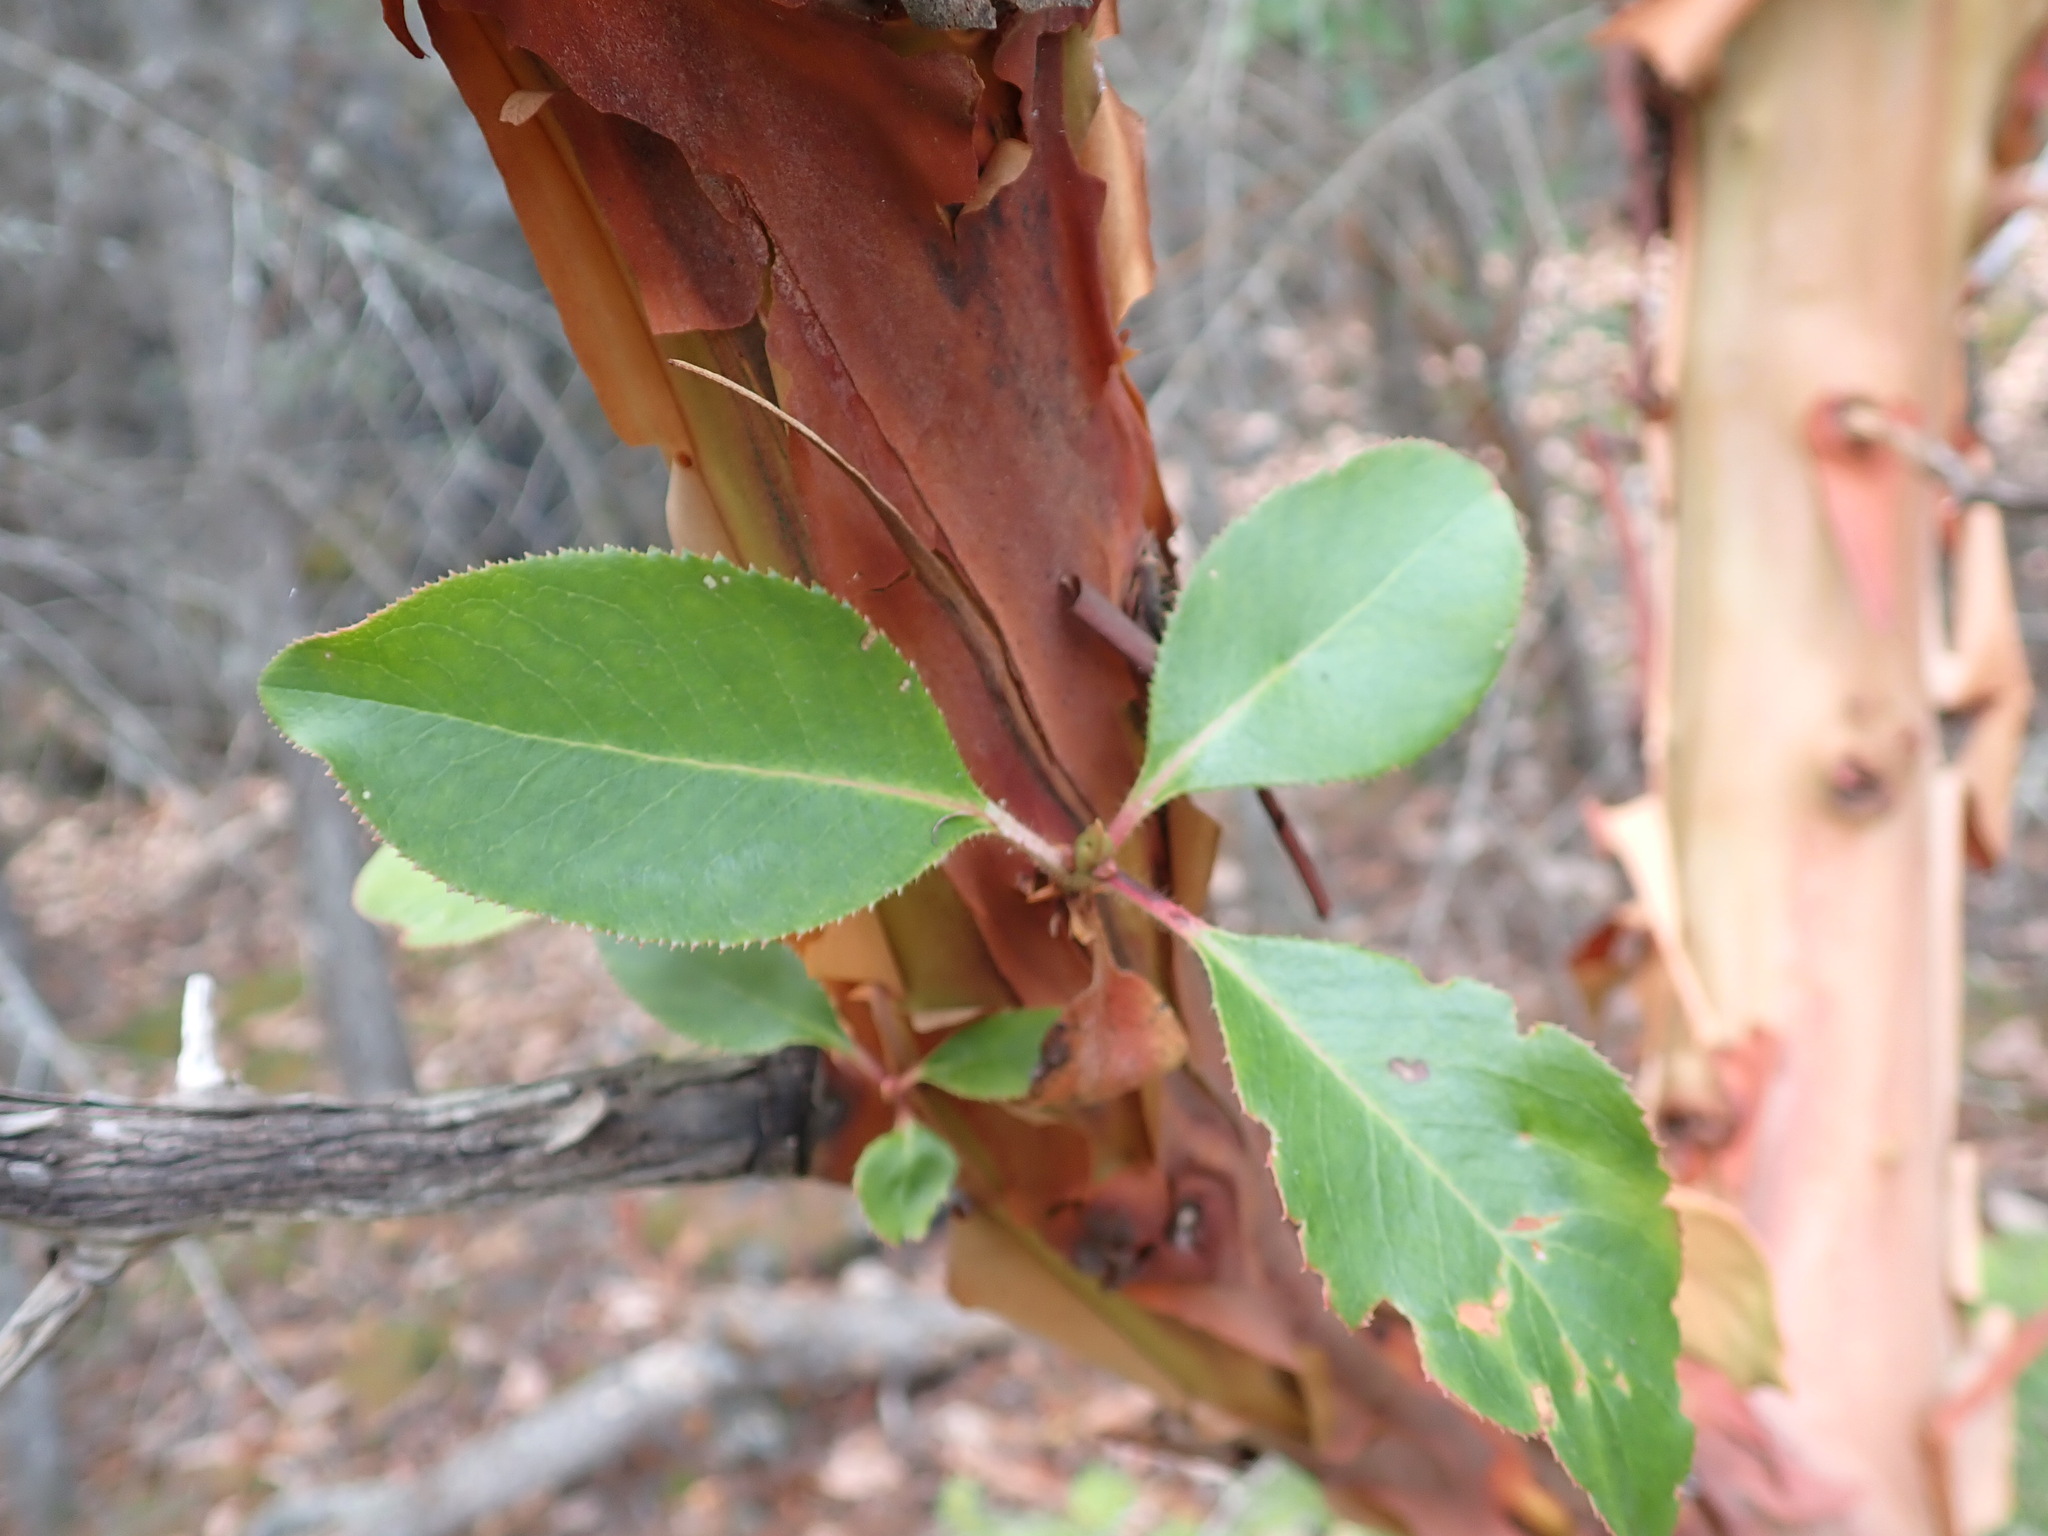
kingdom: Plantae
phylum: Tracheophyta
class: Magnoliopsida
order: Ericales
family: Ericaceae
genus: Arbutus
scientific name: Arbutus menziesii
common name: Pacific madrone
